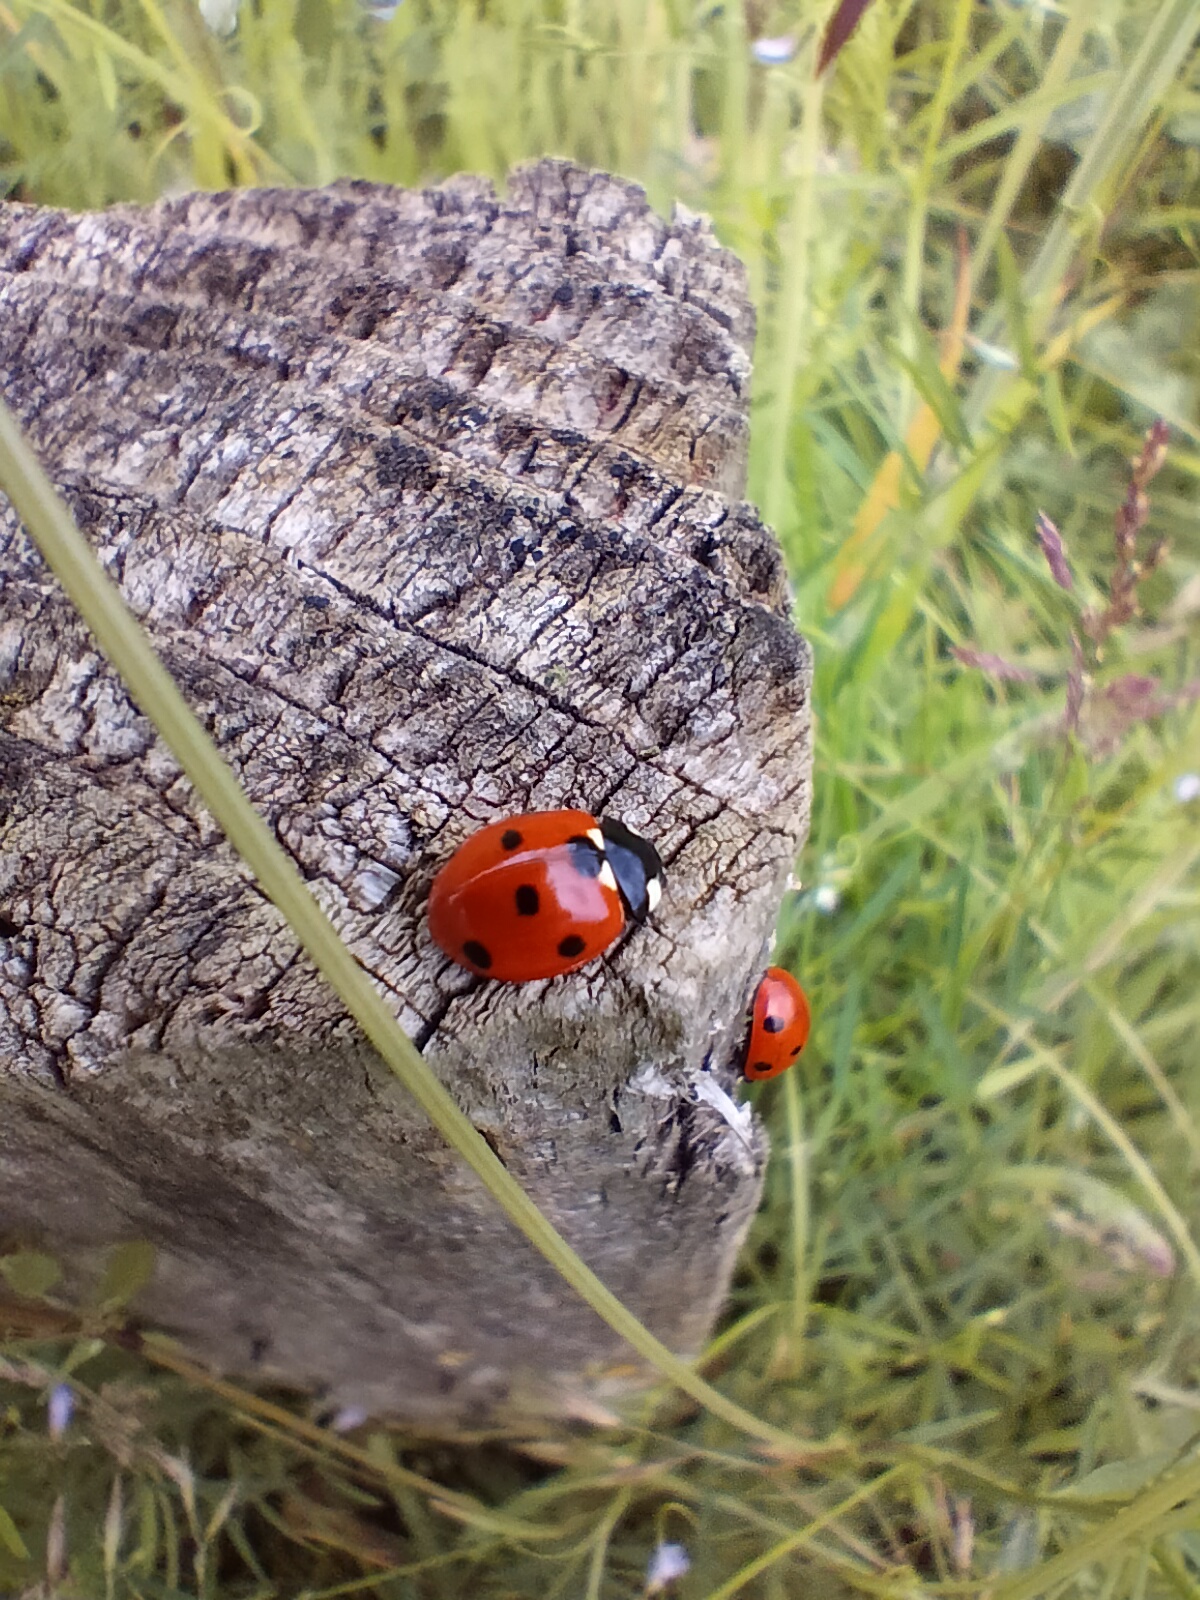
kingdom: Animalia
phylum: Arthropoda
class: Insecta
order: Coleoptera
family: Coccinellidae
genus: Coccinella
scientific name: Coccinella septempunctata
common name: Sevenspotted lady beetle
